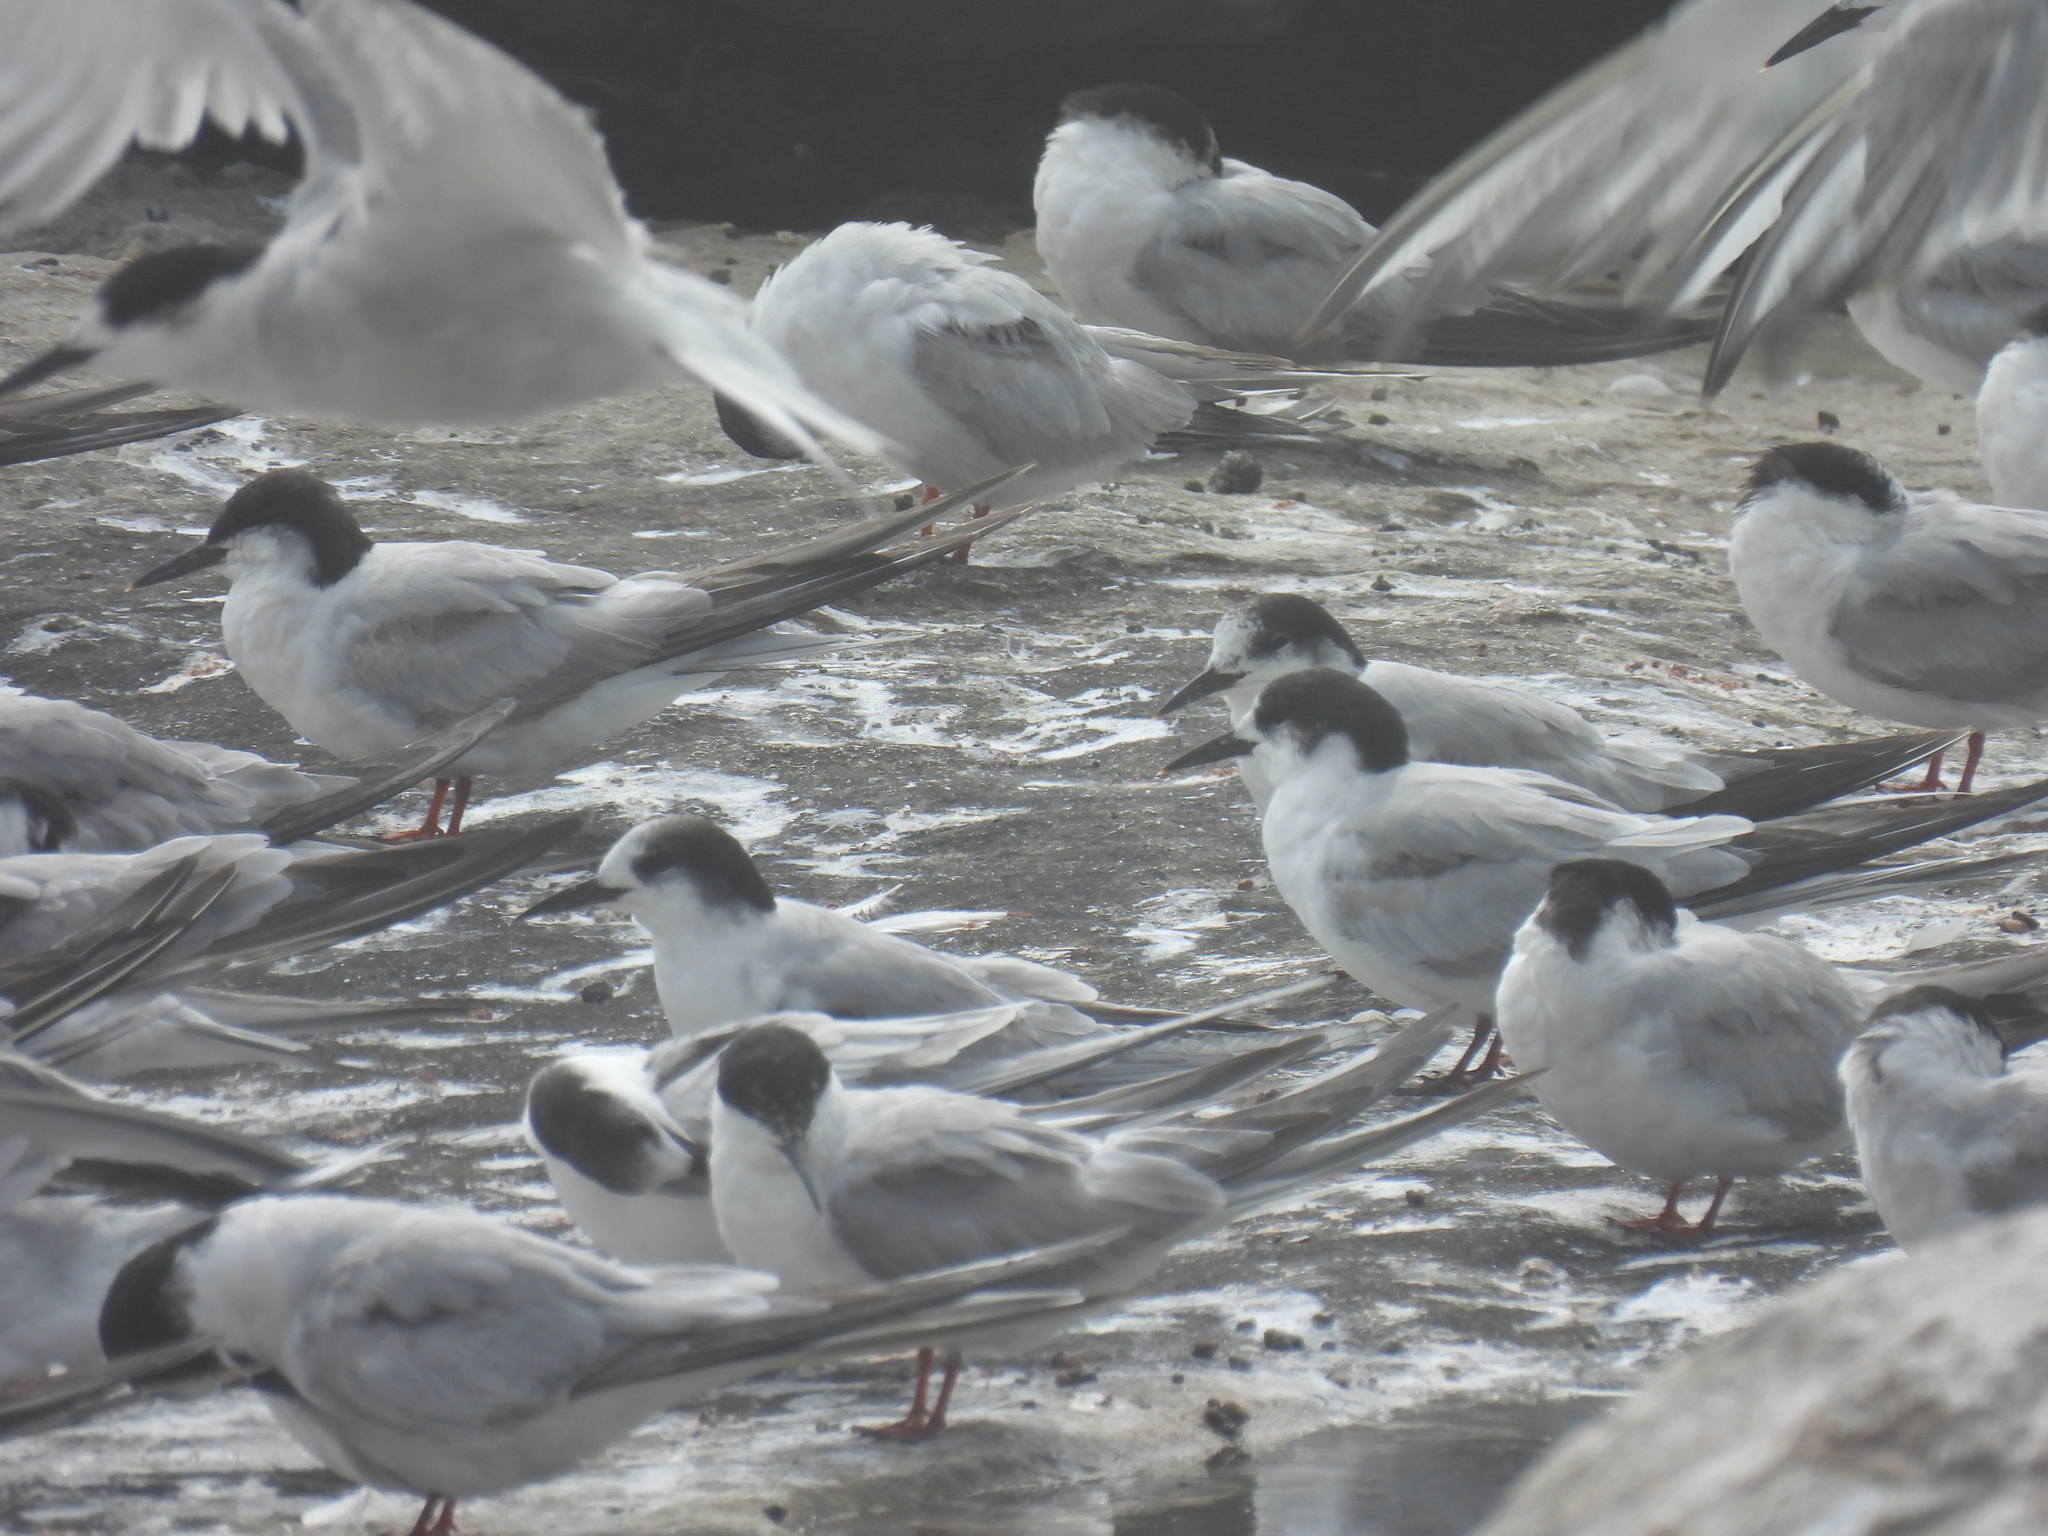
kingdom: Animalia
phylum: Chordata
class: Aves
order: Charadriiformes
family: Laridae
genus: Sterna
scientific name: Sterna hirundo
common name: Common tern
